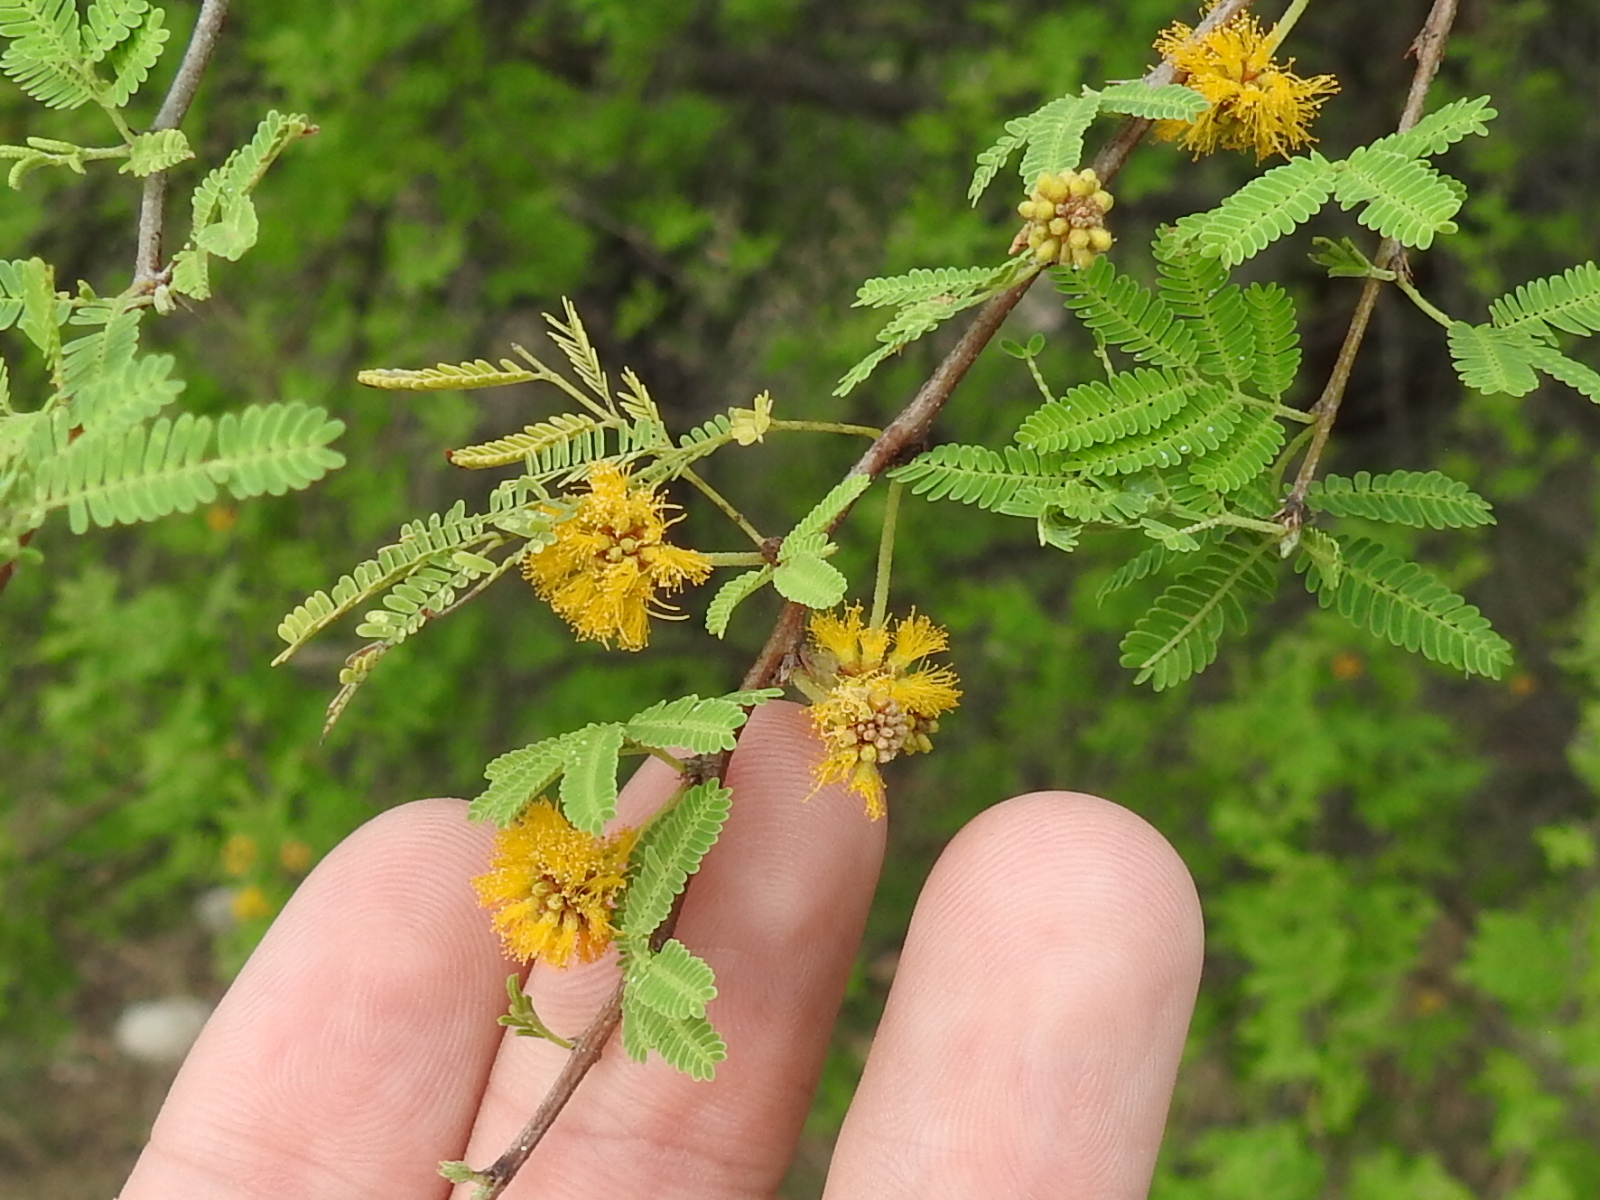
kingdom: Plantae
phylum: Tracheophyta
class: Magnoliopsida
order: Fabales
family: Fabaceae
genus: Vachellia
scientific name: Vachellia farnesiana
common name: Sweet acacia
